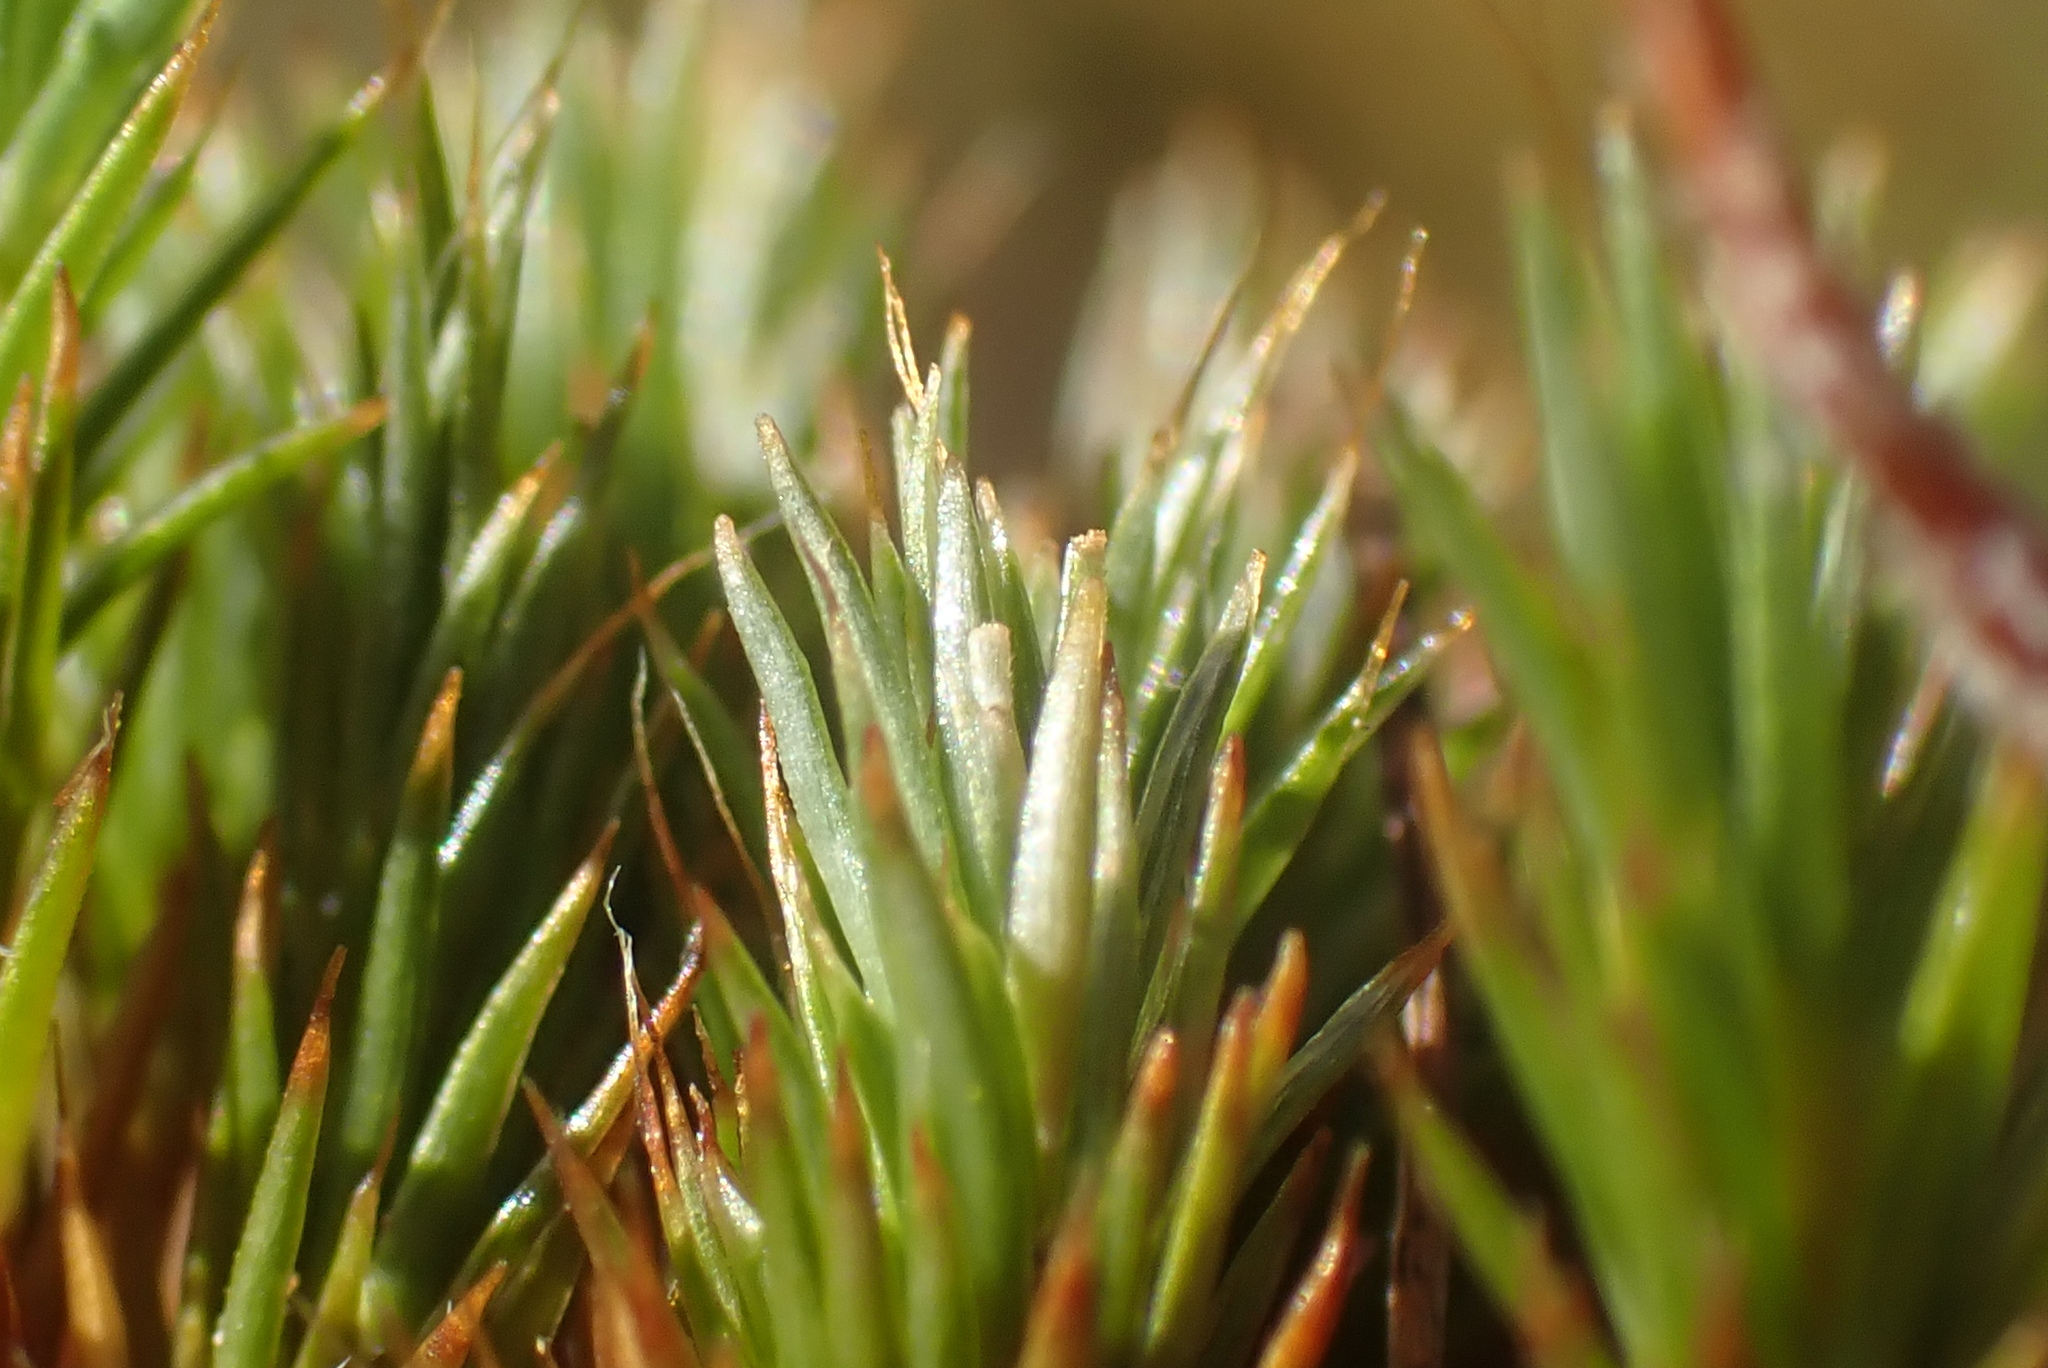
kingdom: Plantae
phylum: Bryophyta
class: Polytrichopsida
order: Polytrichales
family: Polytrichaceae
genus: Polytrichum
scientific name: Polytrichum juniperinum
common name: Juniper haircap moss
